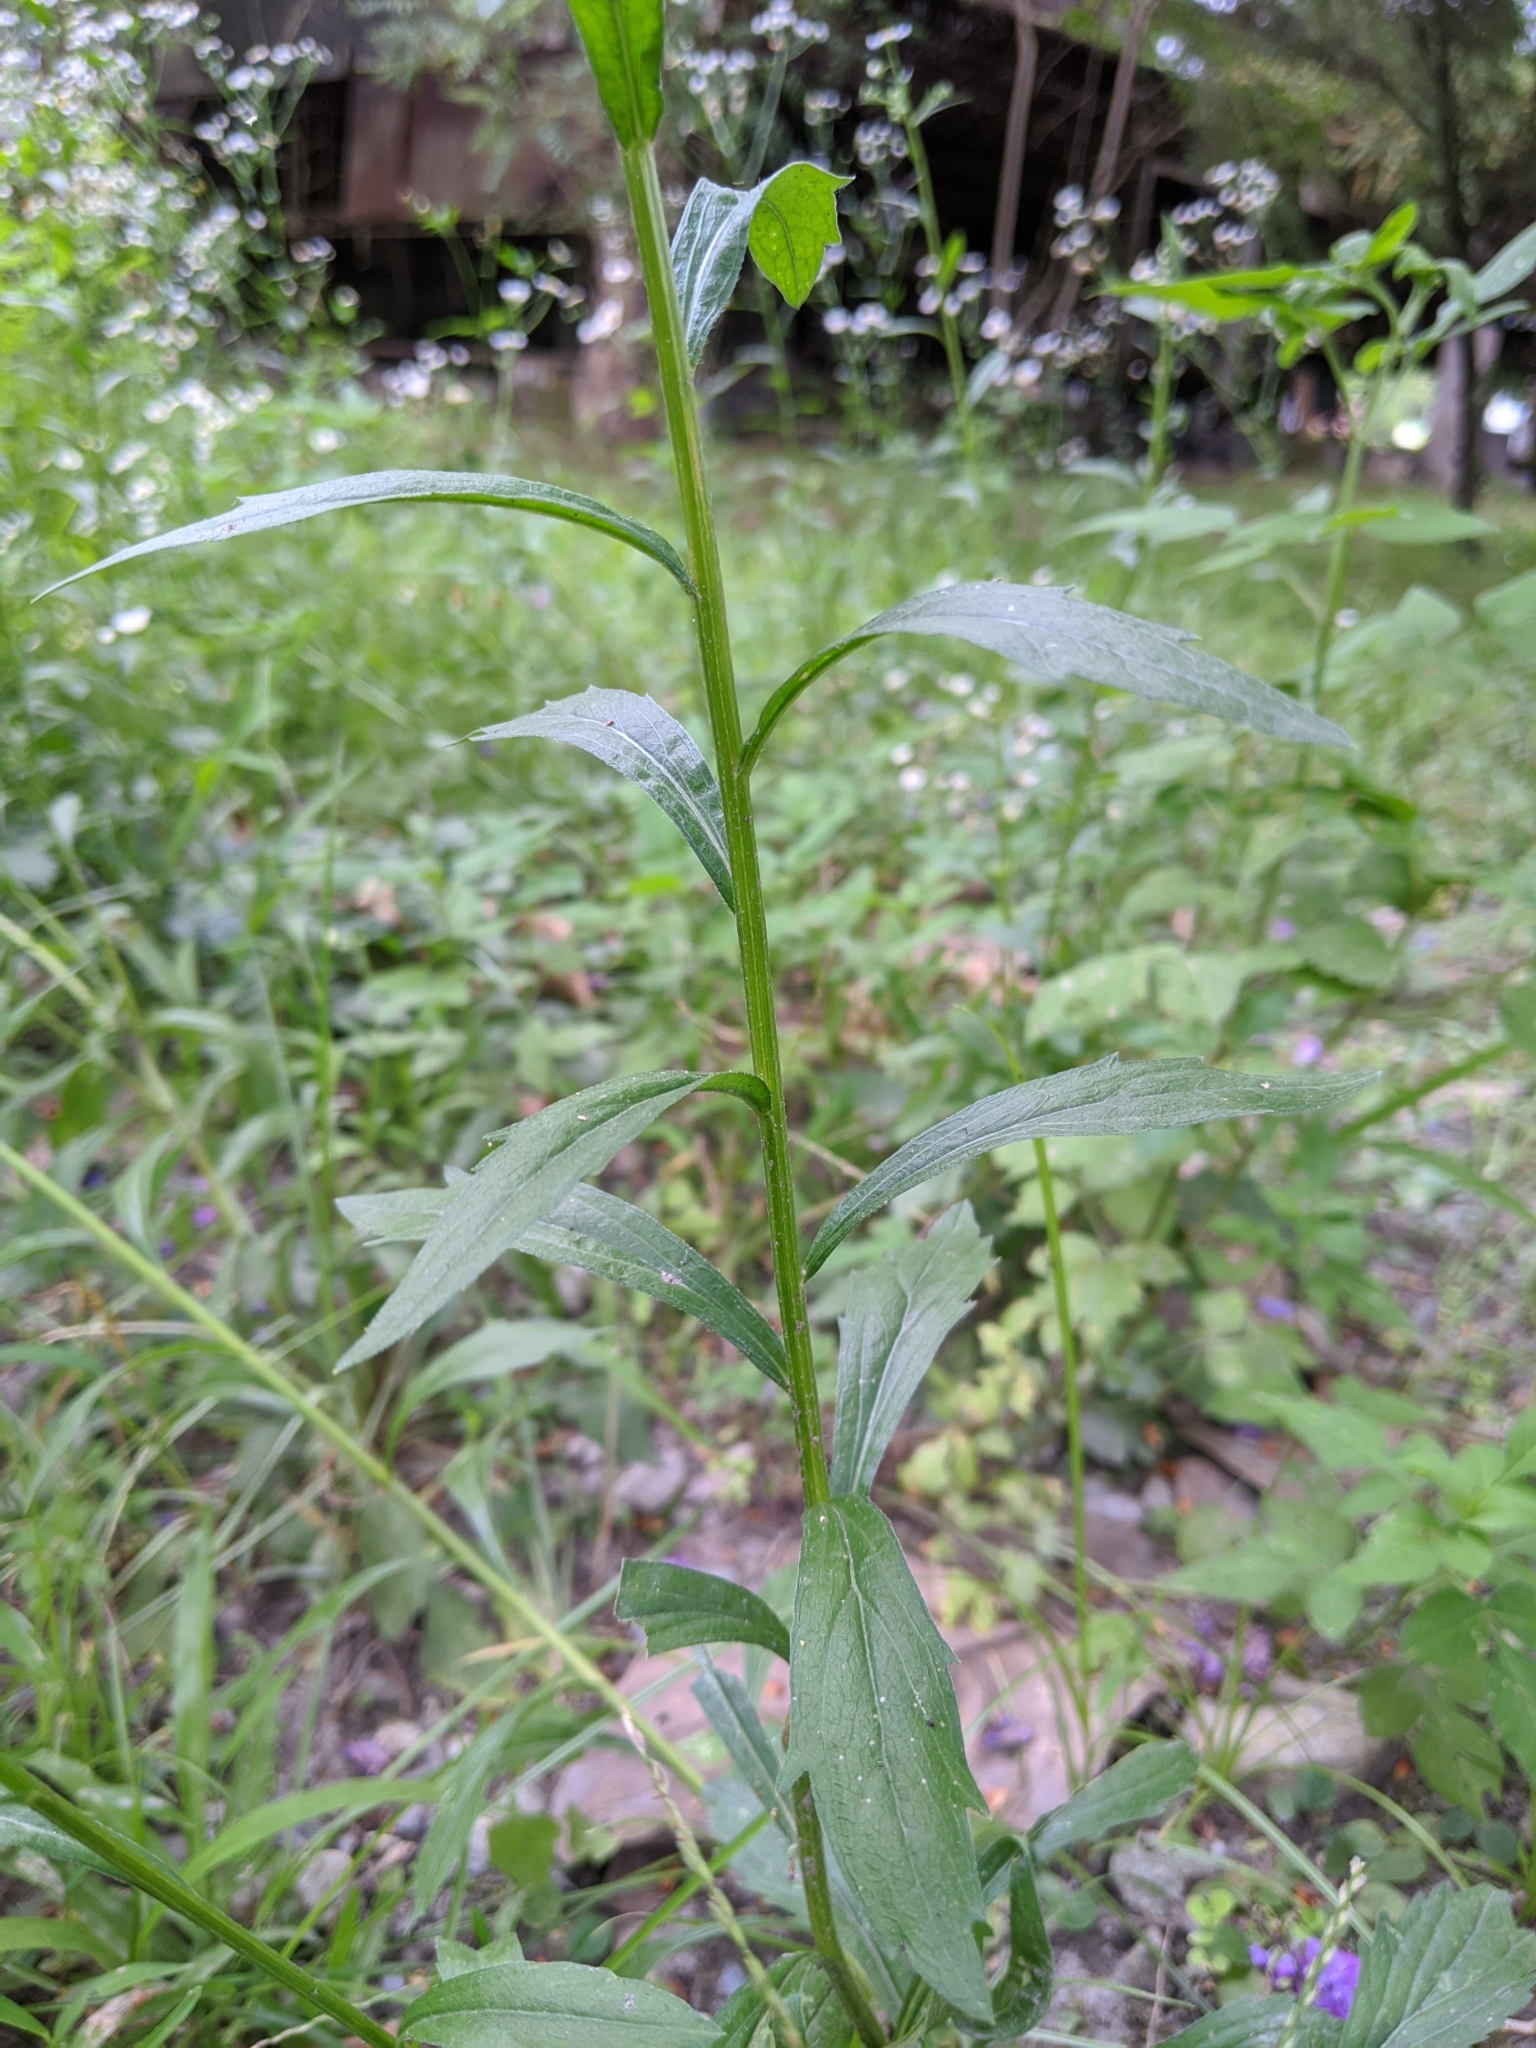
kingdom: Plantae
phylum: Tracheophyta
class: Magnoliopsida
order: Asterales
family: Asteraceae
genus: Erigeron
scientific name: Erigeron annuus
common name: Tall fleabane
